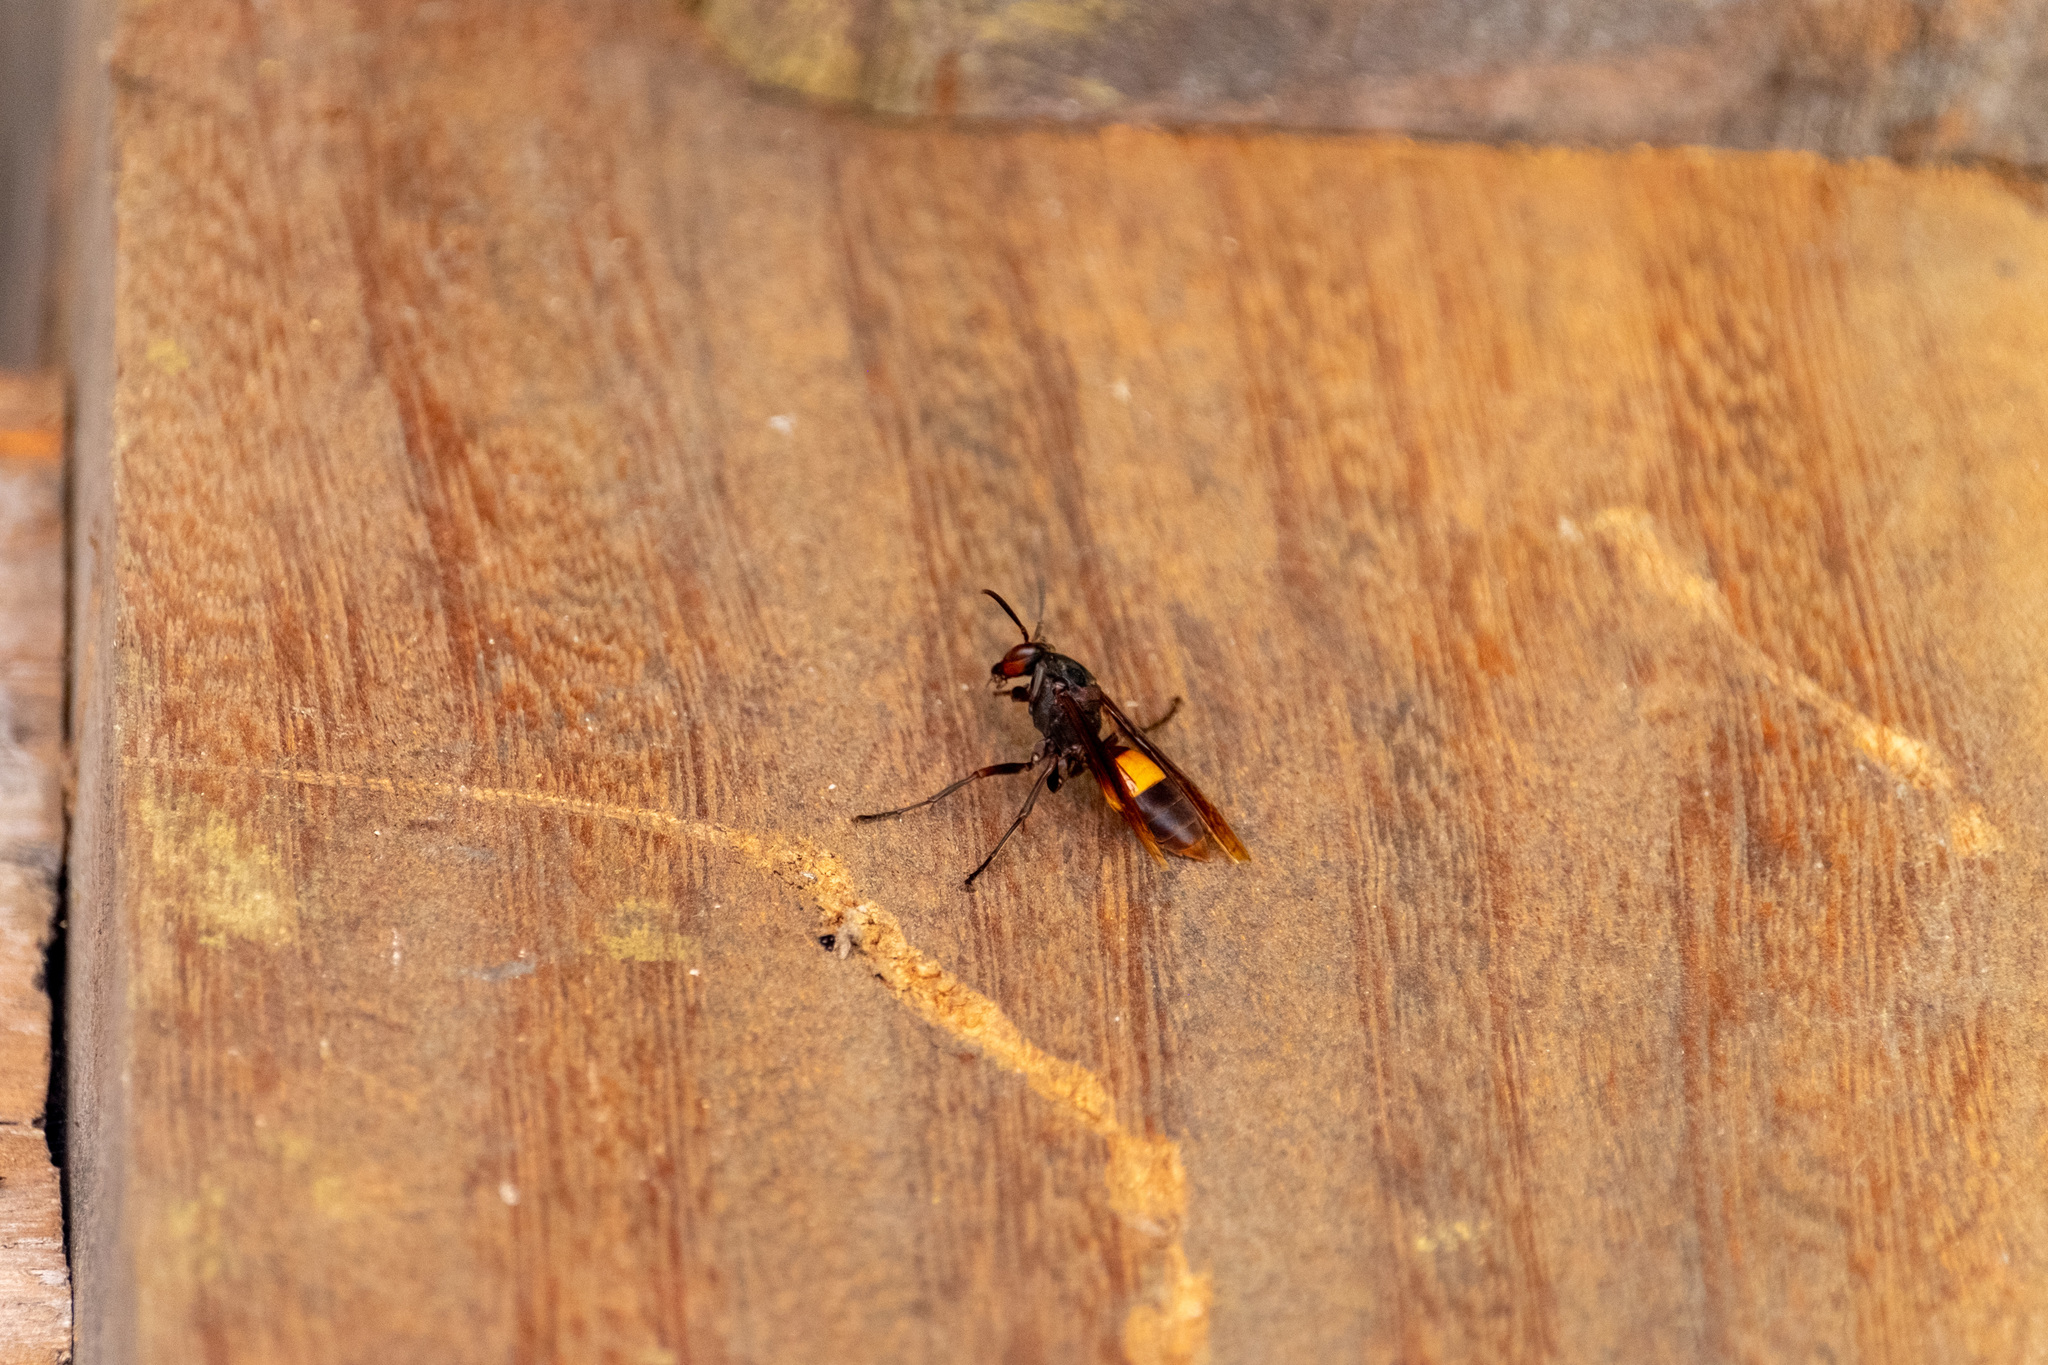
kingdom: Animalia
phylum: Arthropoda
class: Insecta
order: Hymenoptera
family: Eumenidae
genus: Polistes
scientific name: Polistes sagittarius
